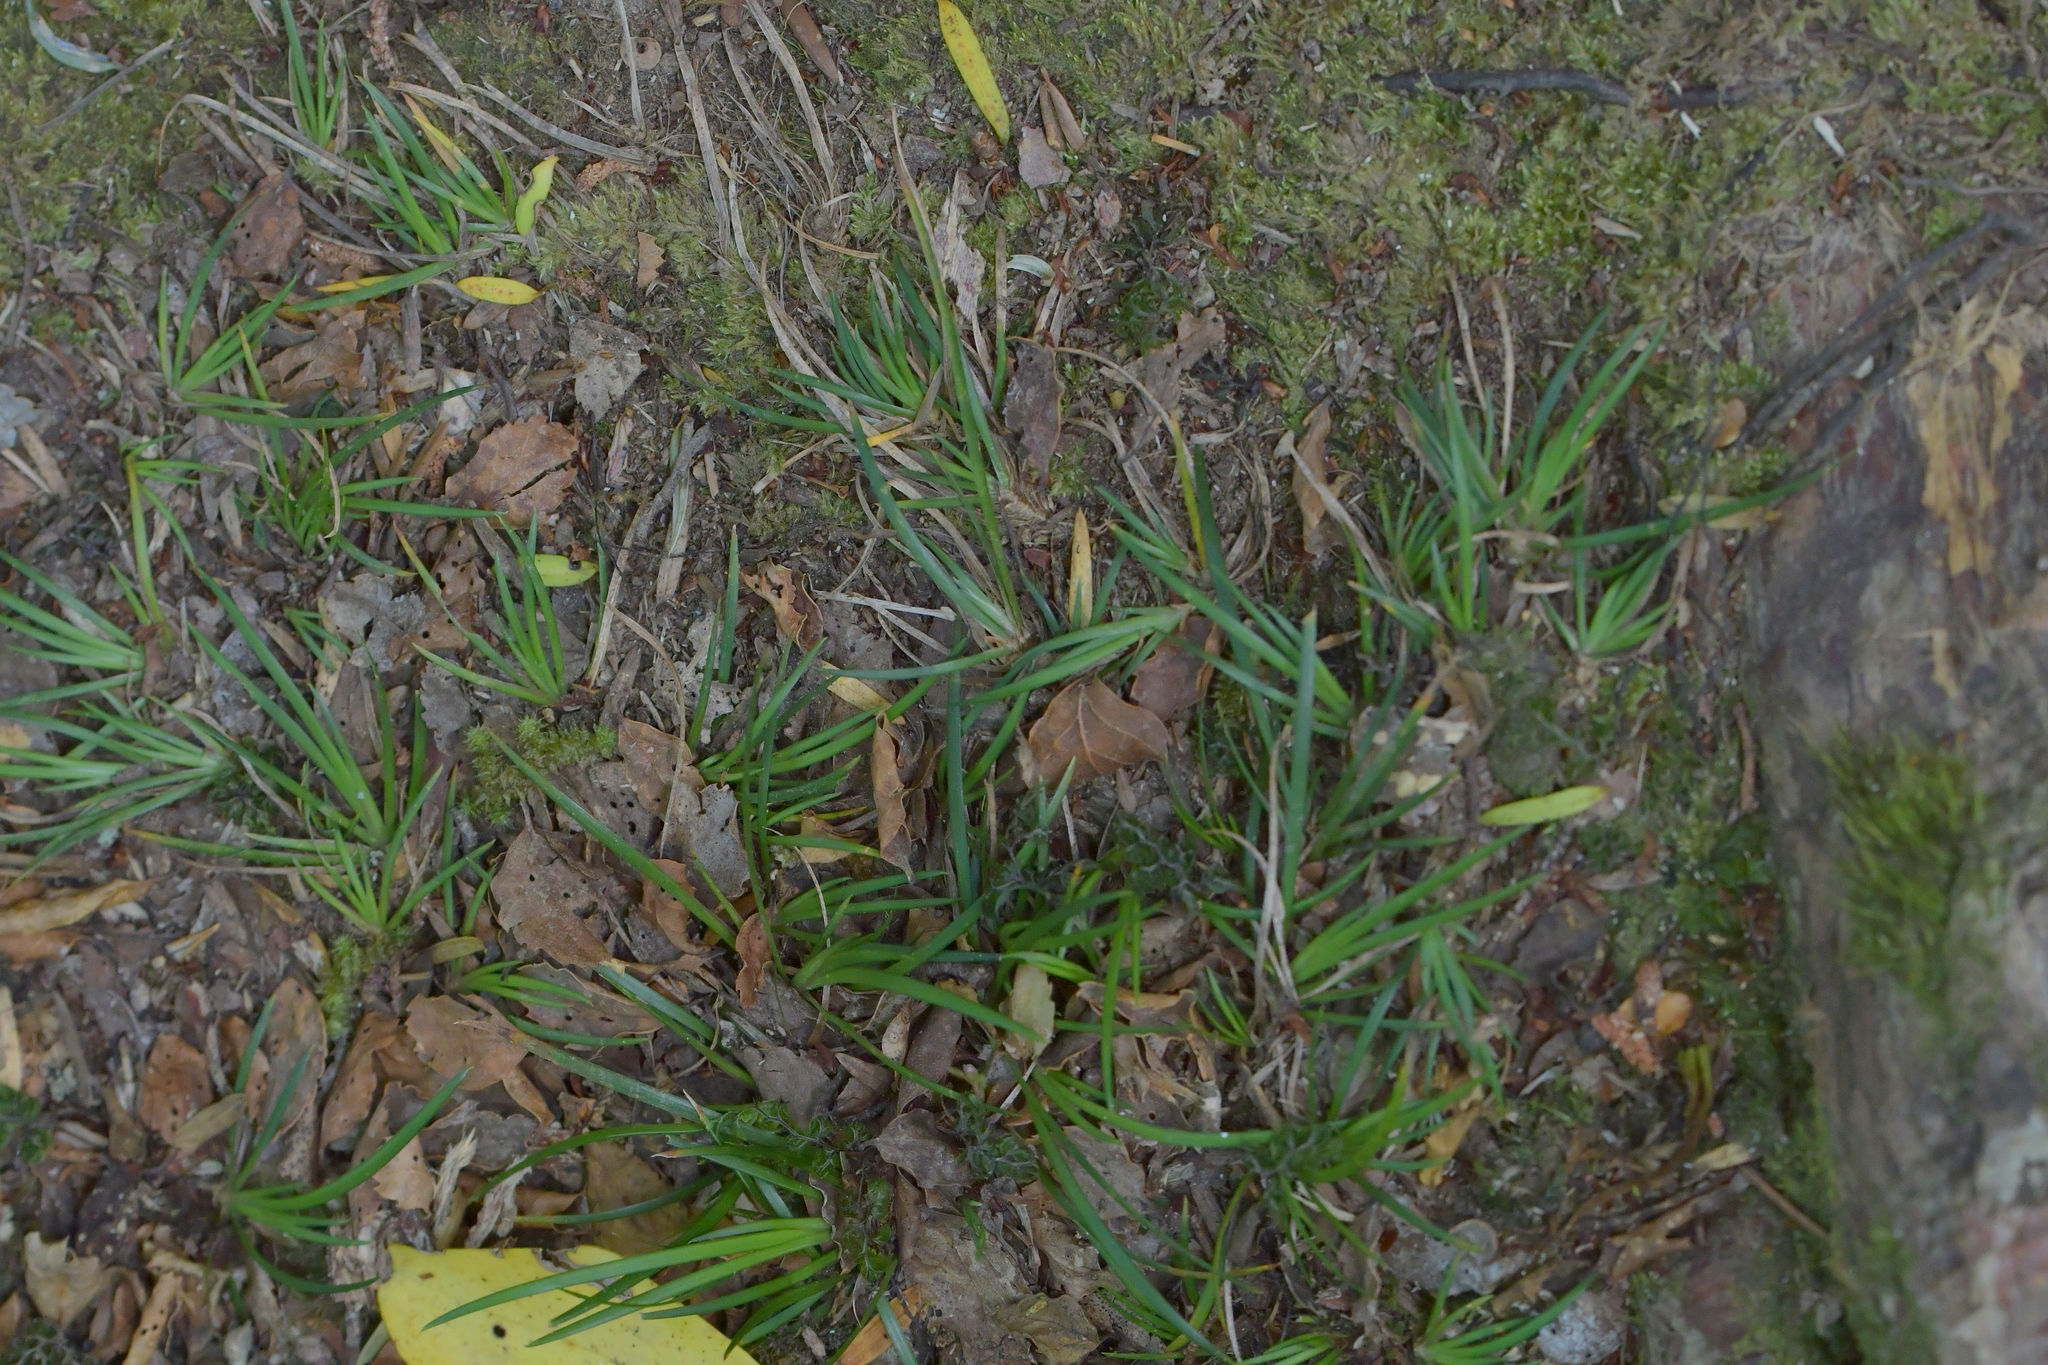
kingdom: Plantae
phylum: Tracheophyta
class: Liliopsida
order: Asparagales
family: Iridaceae
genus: Libertia
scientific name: Libertia micrantha
